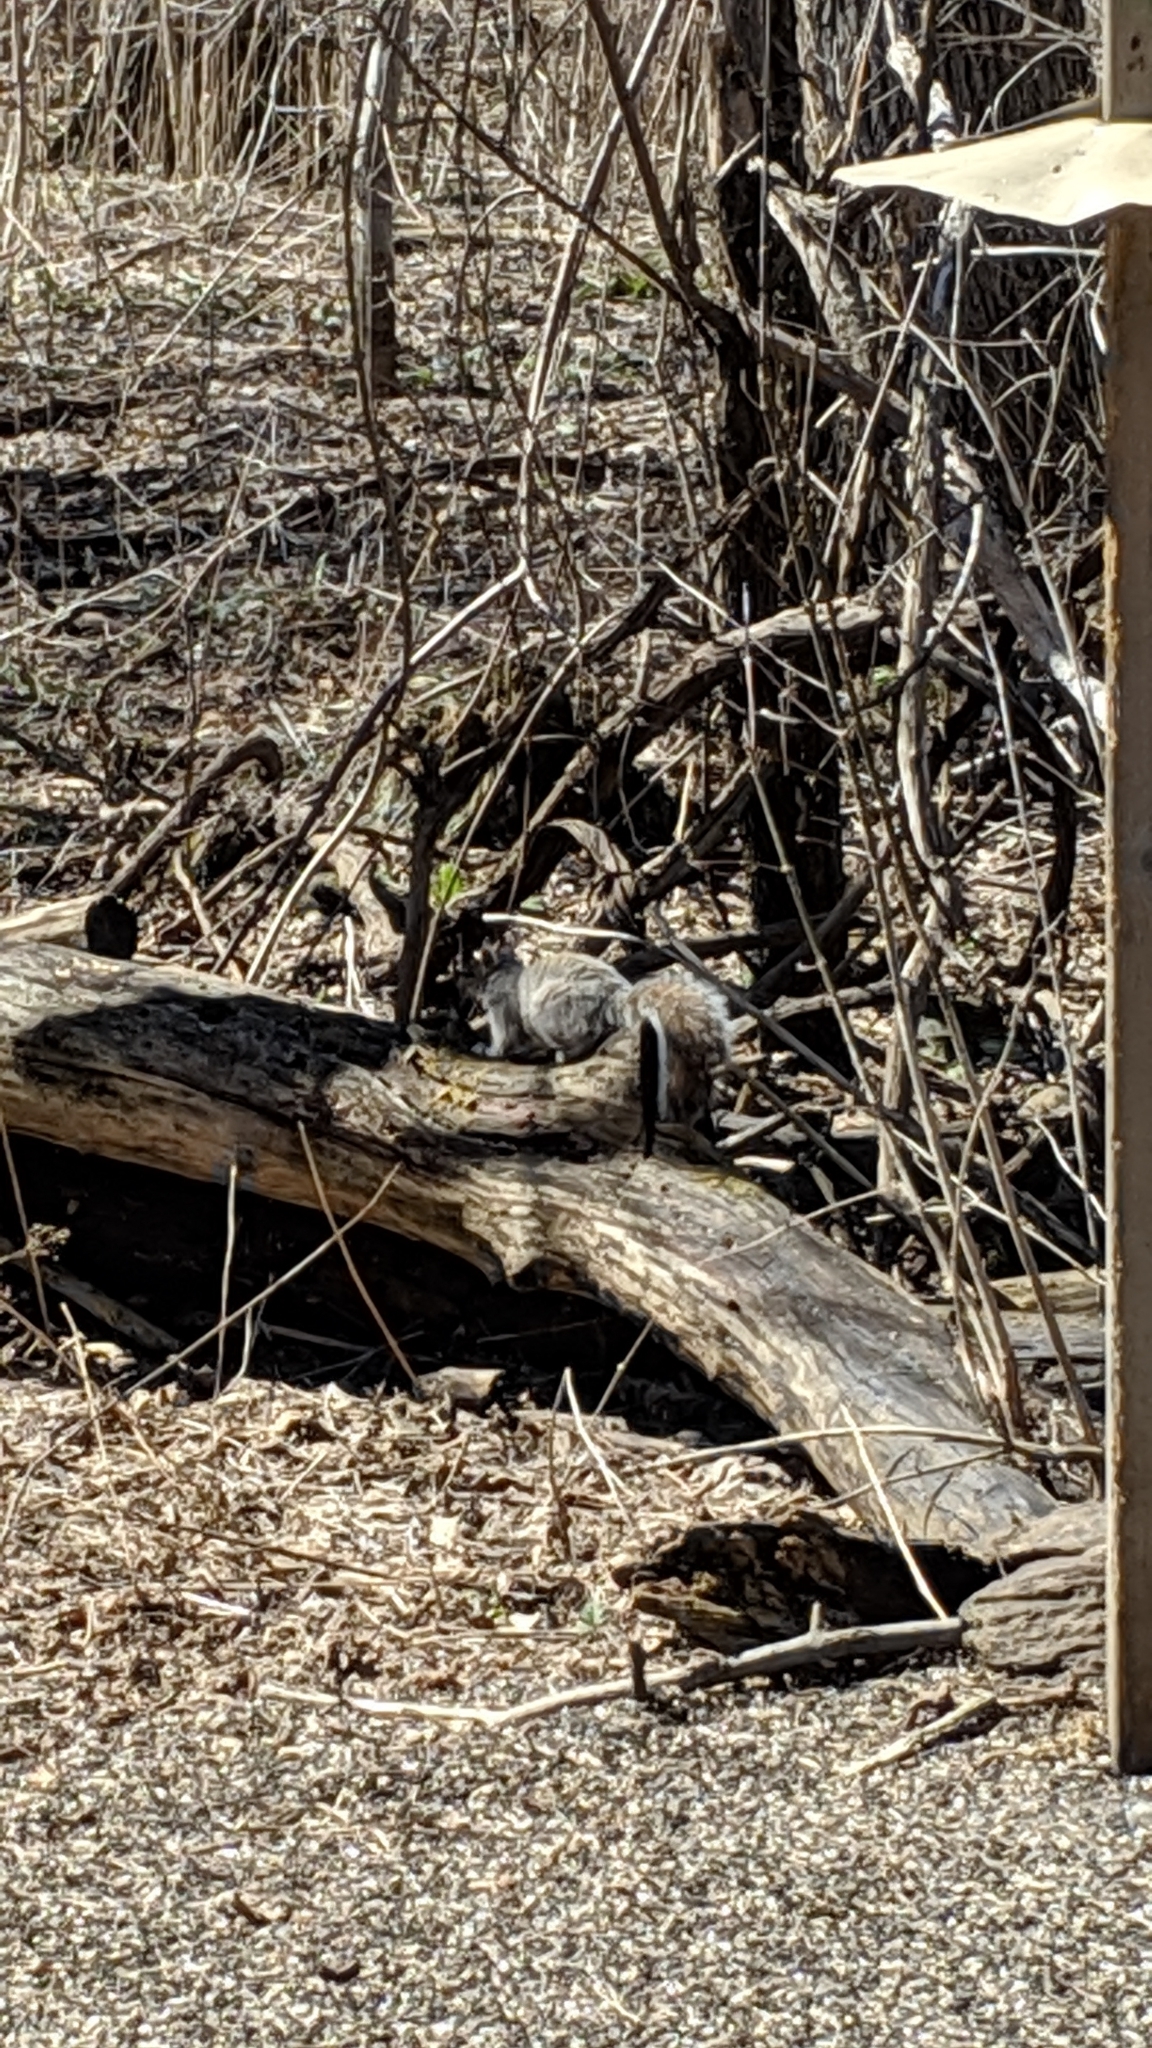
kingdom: Animalia
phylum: Chordata
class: Mammalia
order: Rodentia
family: Sciuridae
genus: Sciurus
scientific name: Sciurus carolinensis
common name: Eastern gray squirrel
